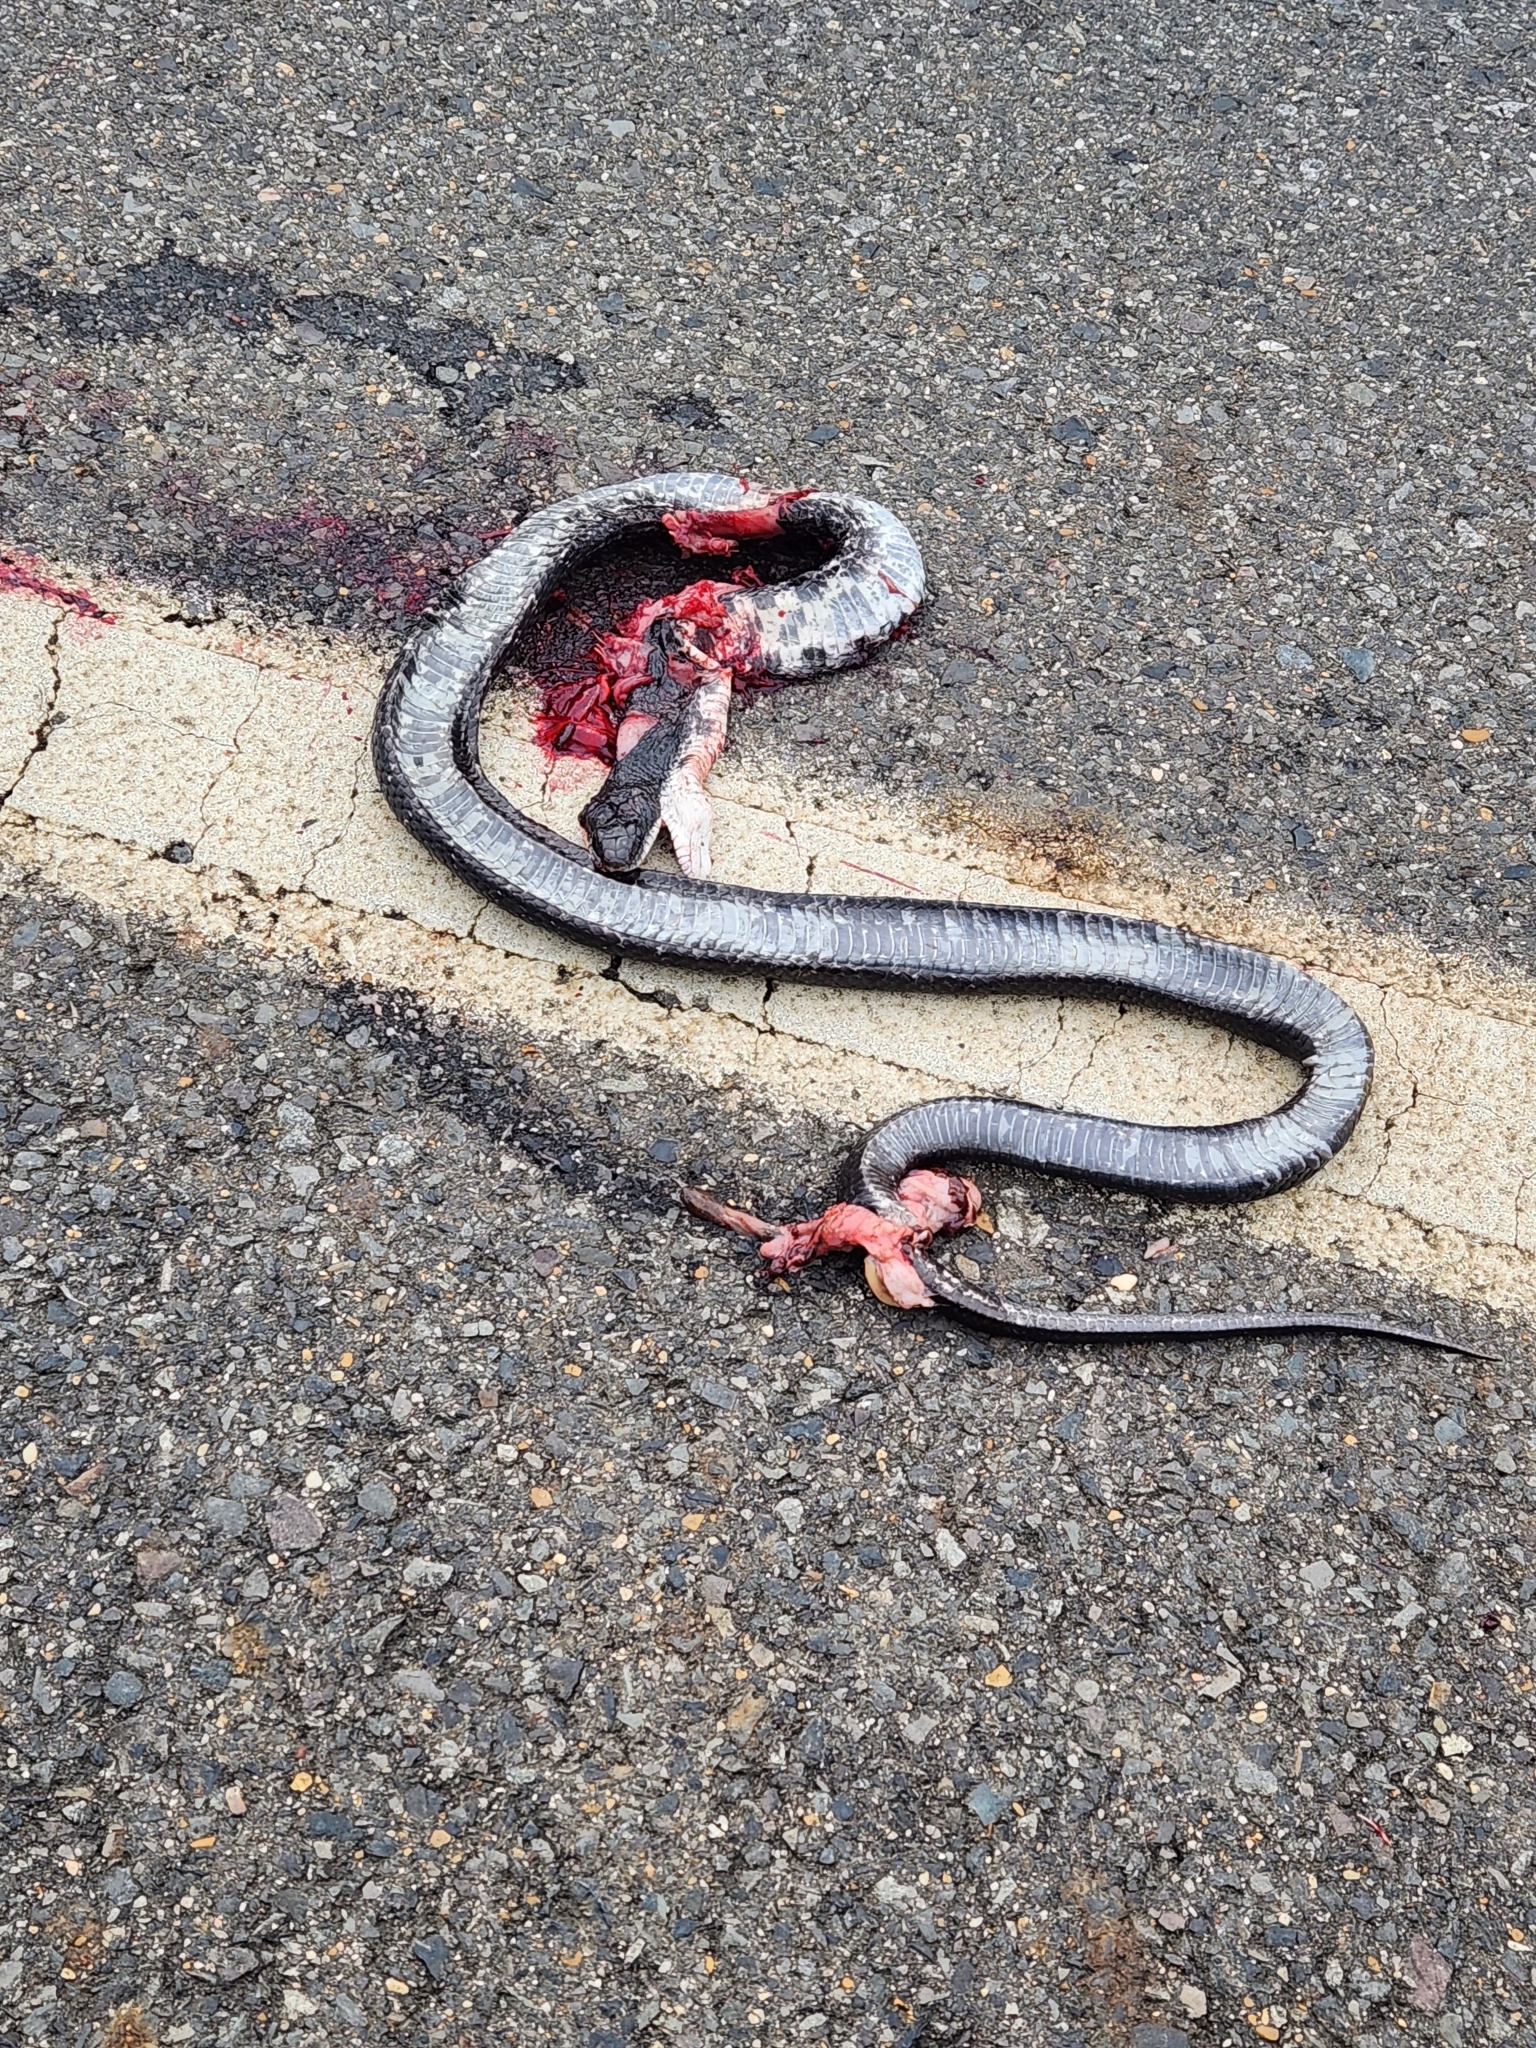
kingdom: Animalia
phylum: Chordata
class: Squamata
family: Colubridae
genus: Pantherophis
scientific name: Pantherophis obsoletus
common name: Black rat snake
